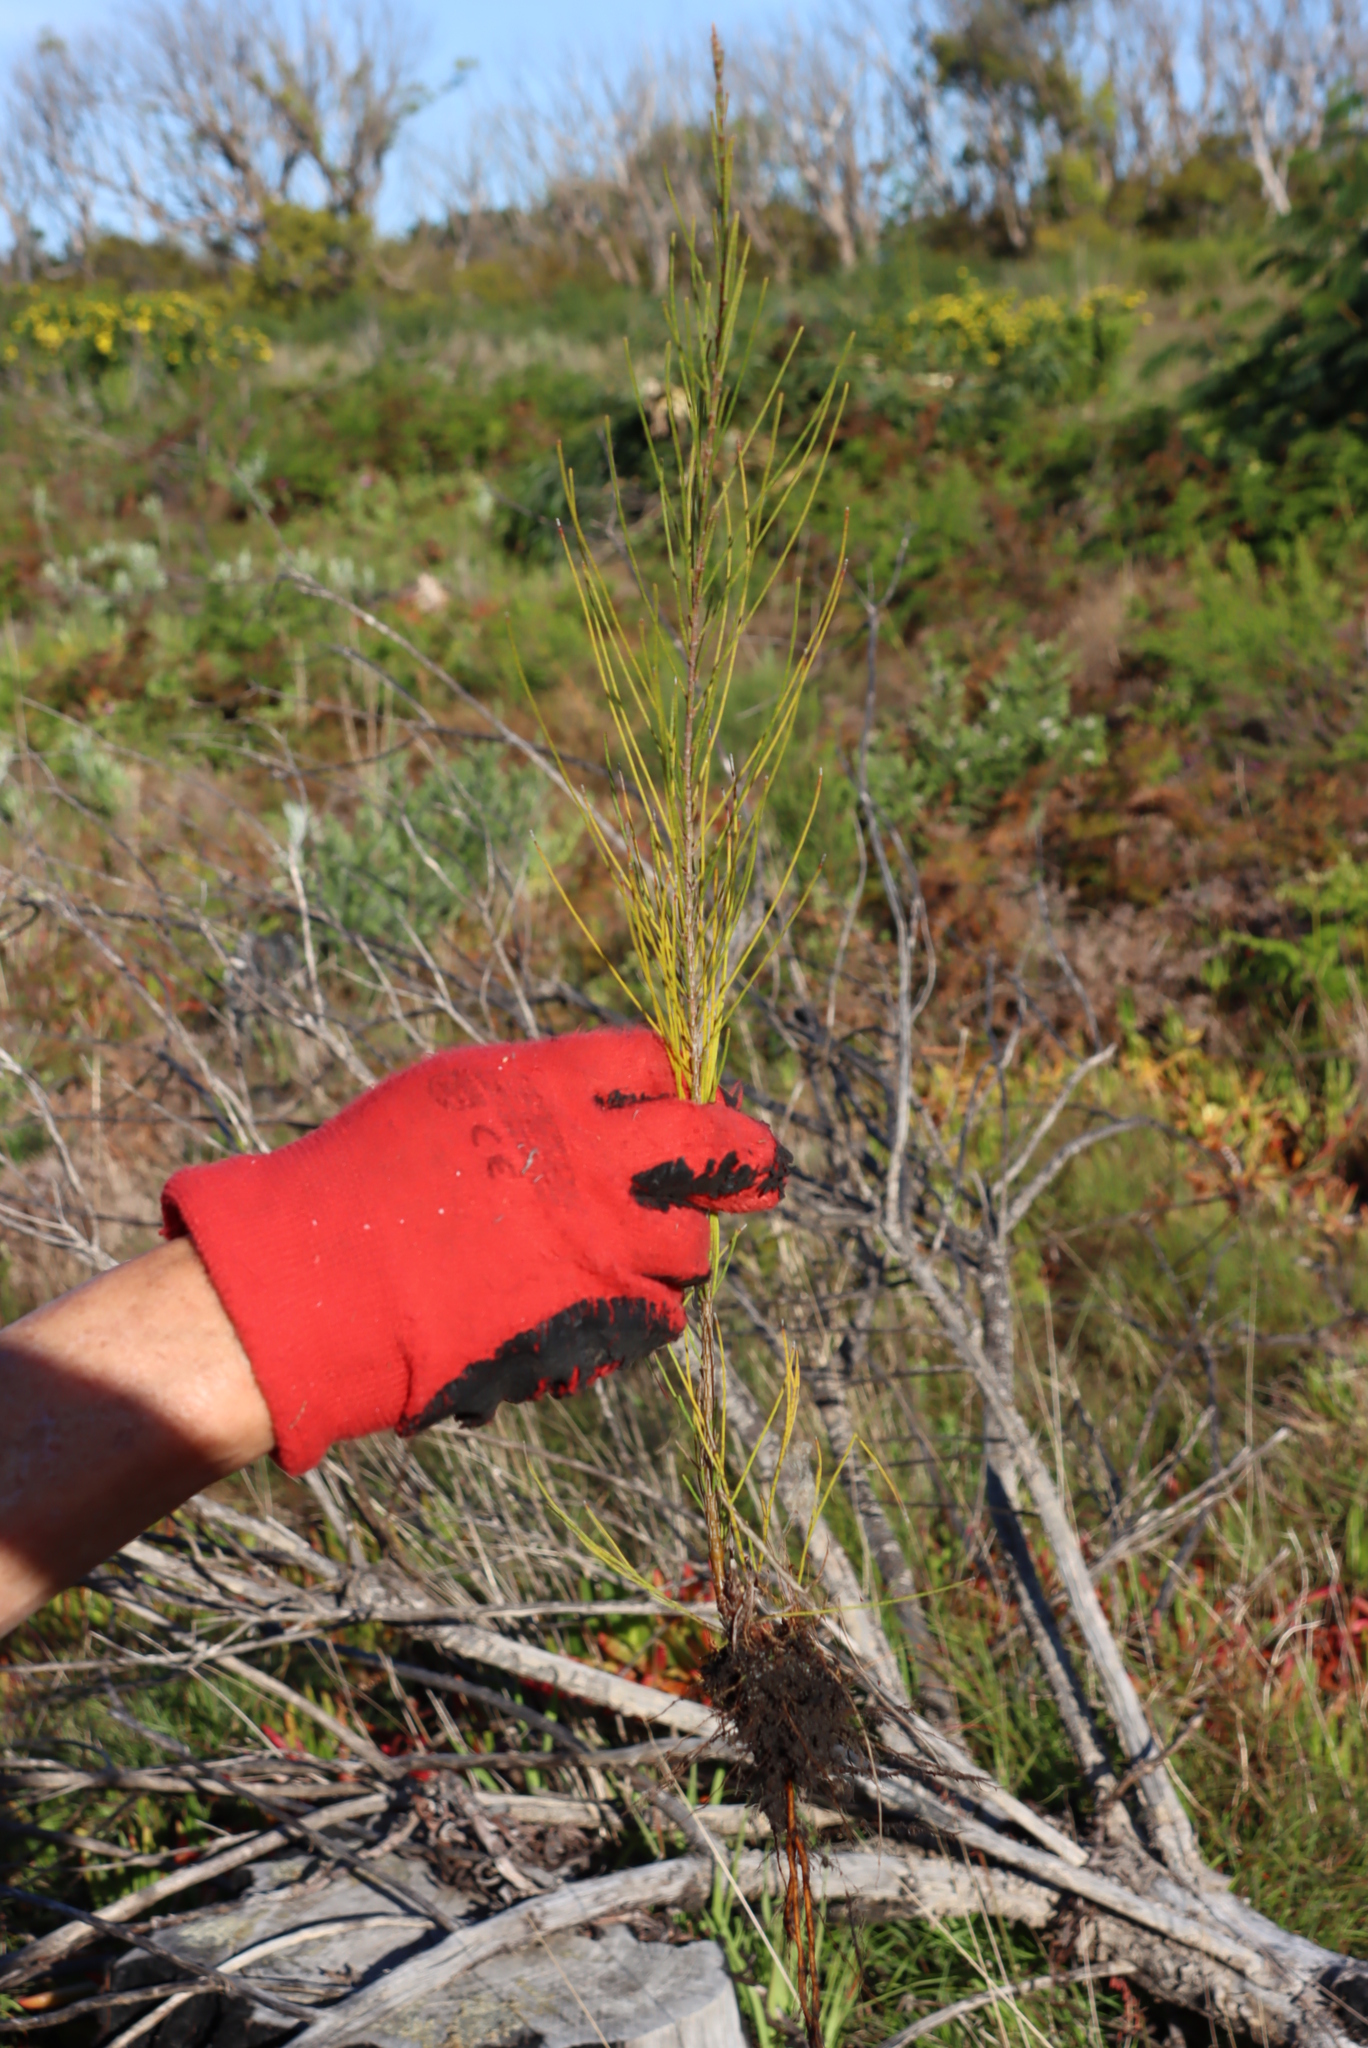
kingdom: Plantae
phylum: Tracheophyta
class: Magnoliopsida
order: Fagales
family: Casuarinaceae
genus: Casuarina
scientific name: Casuarina cunninghamiana
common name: River sheoak
